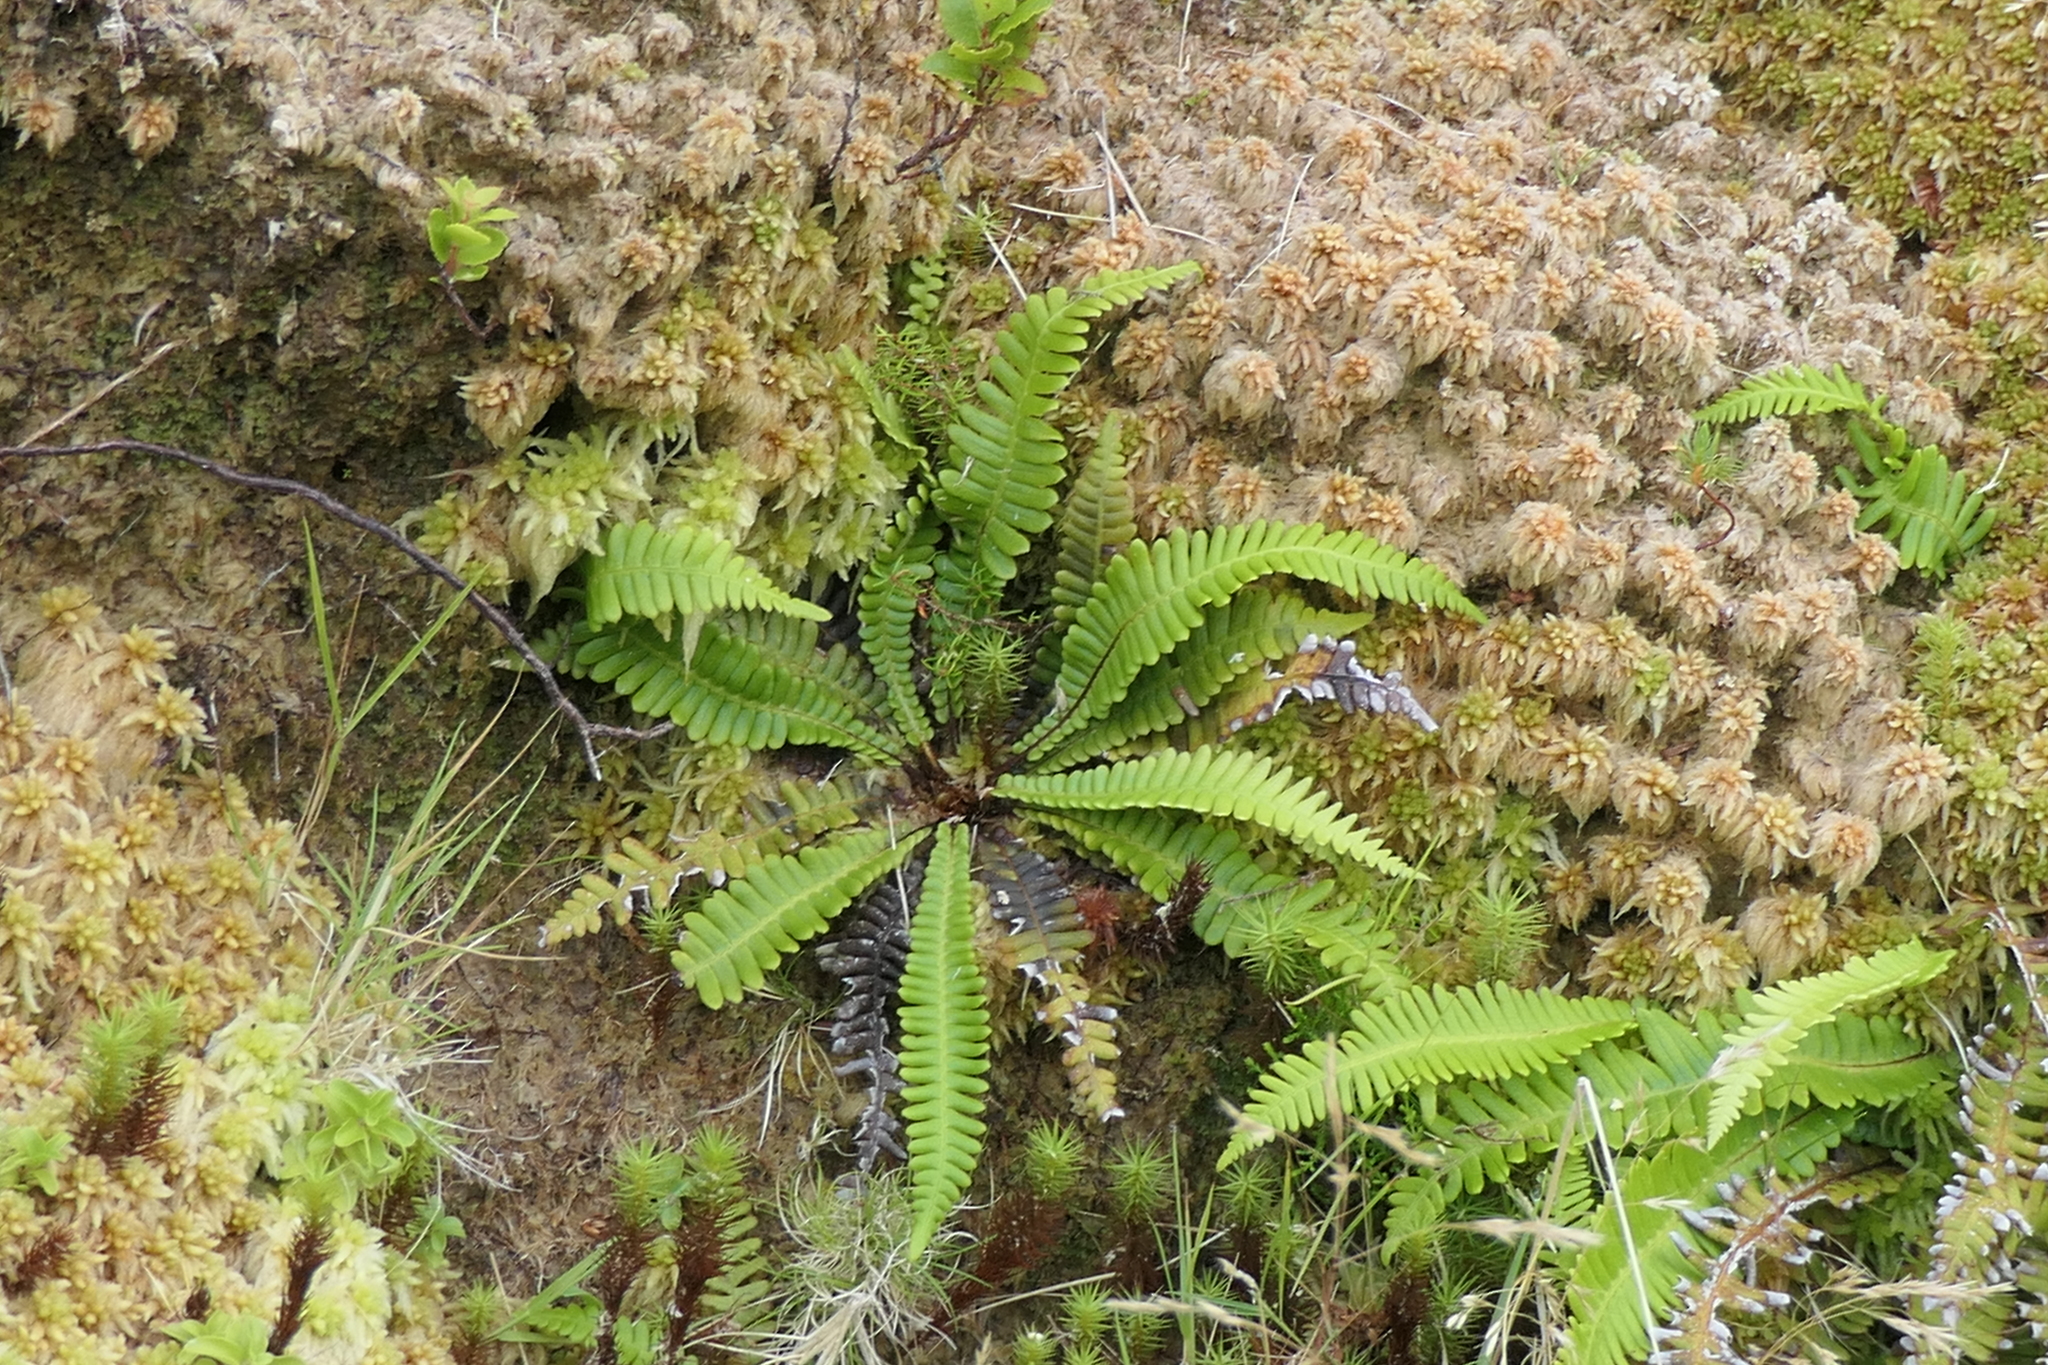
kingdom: Plantae
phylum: Tracheophyta
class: Polypodiopsida
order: Polypodiales
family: Blechnaceae
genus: Struthiopteris
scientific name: Struthiopteris spicant
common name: Deer fern
